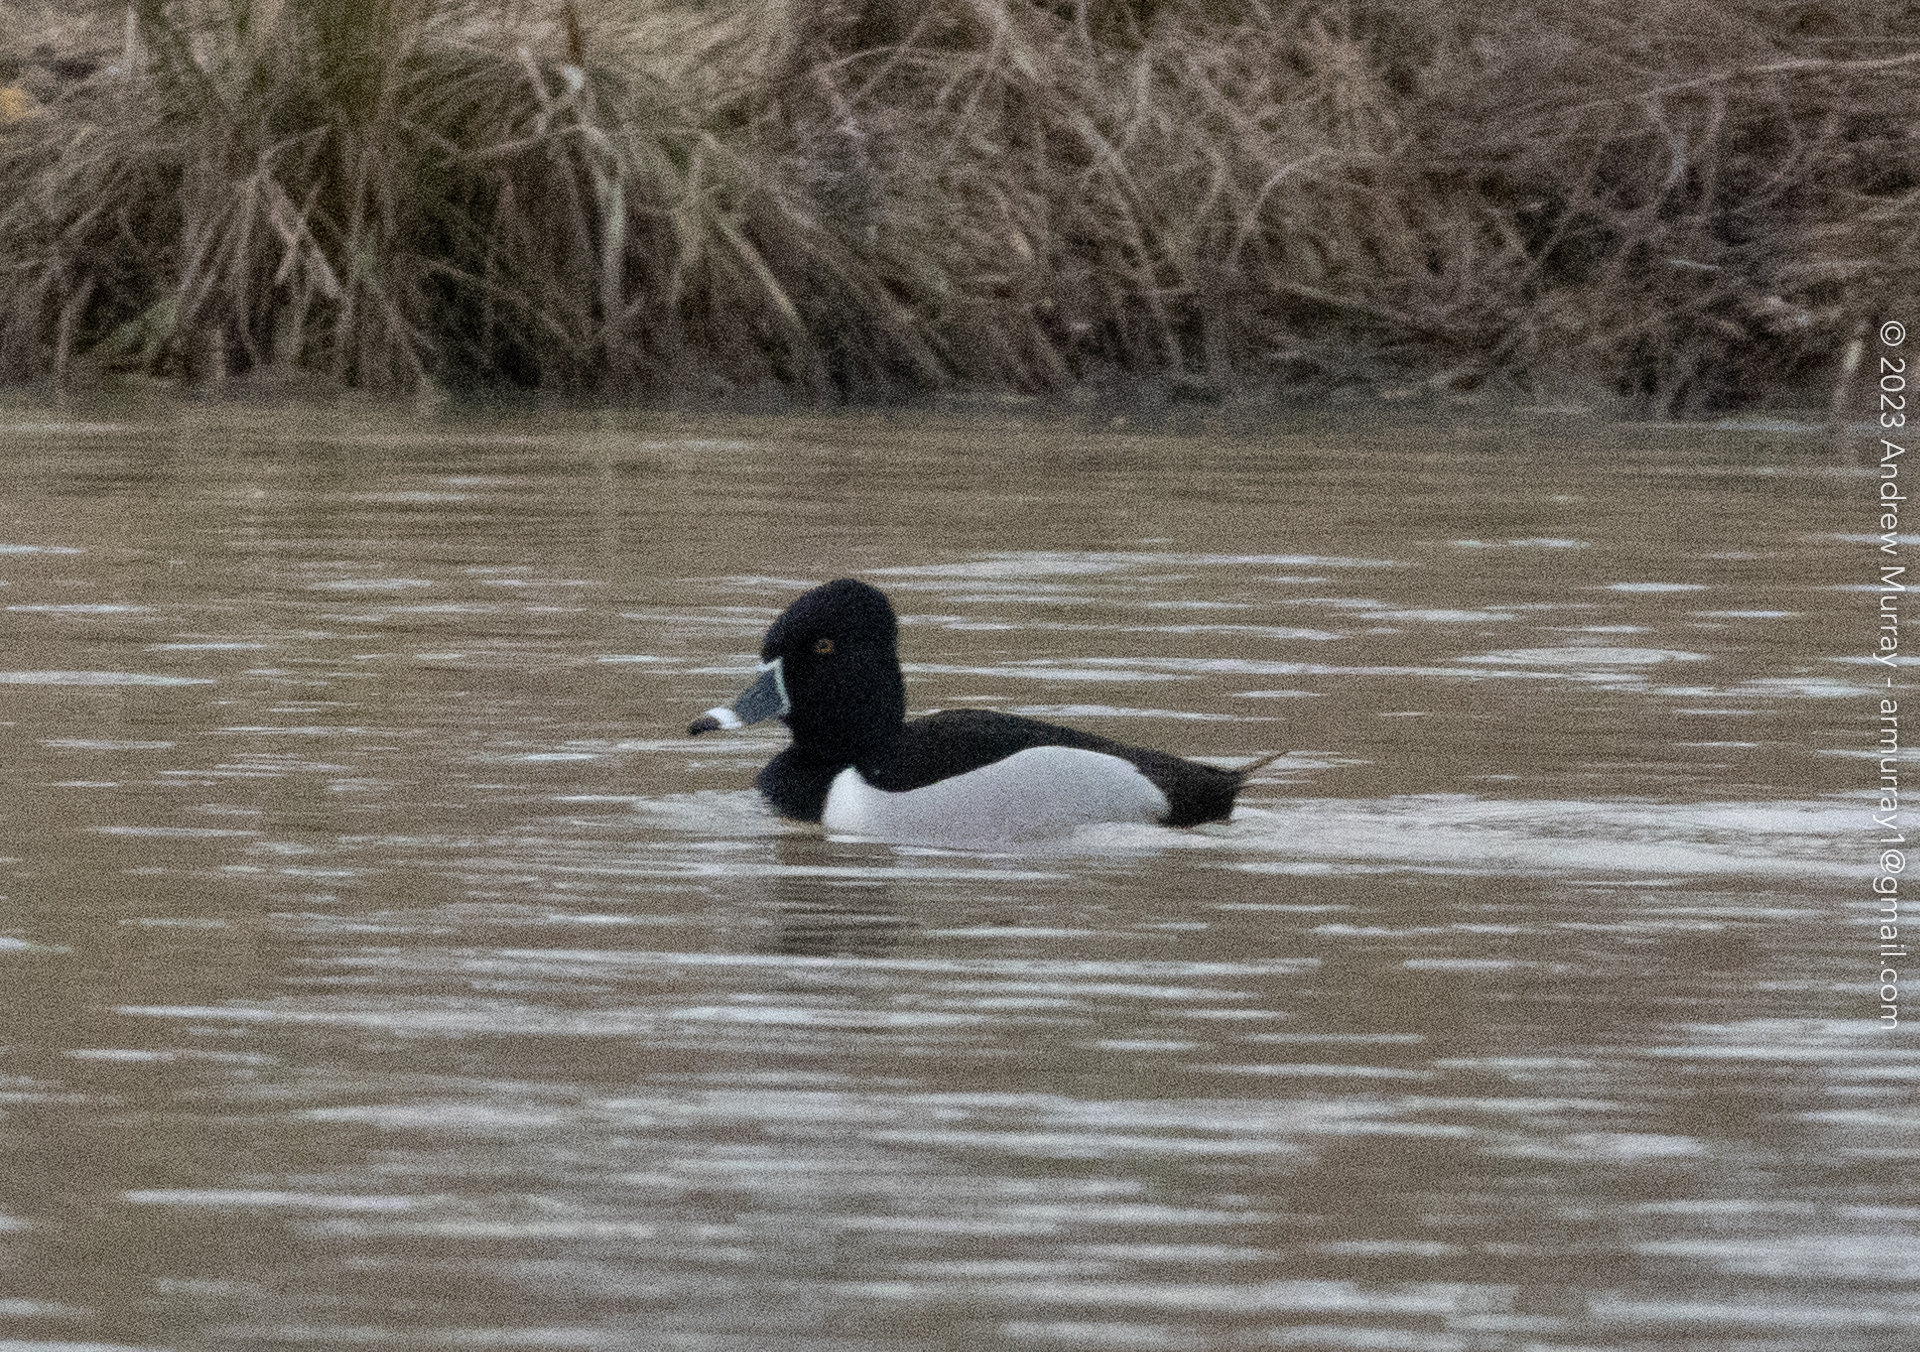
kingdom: Animalia
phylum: Chordata
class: Aves
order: Anseriformes
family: Anatidae
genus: Aythya
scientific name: Aythya collaris
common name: Ring-necked duck
